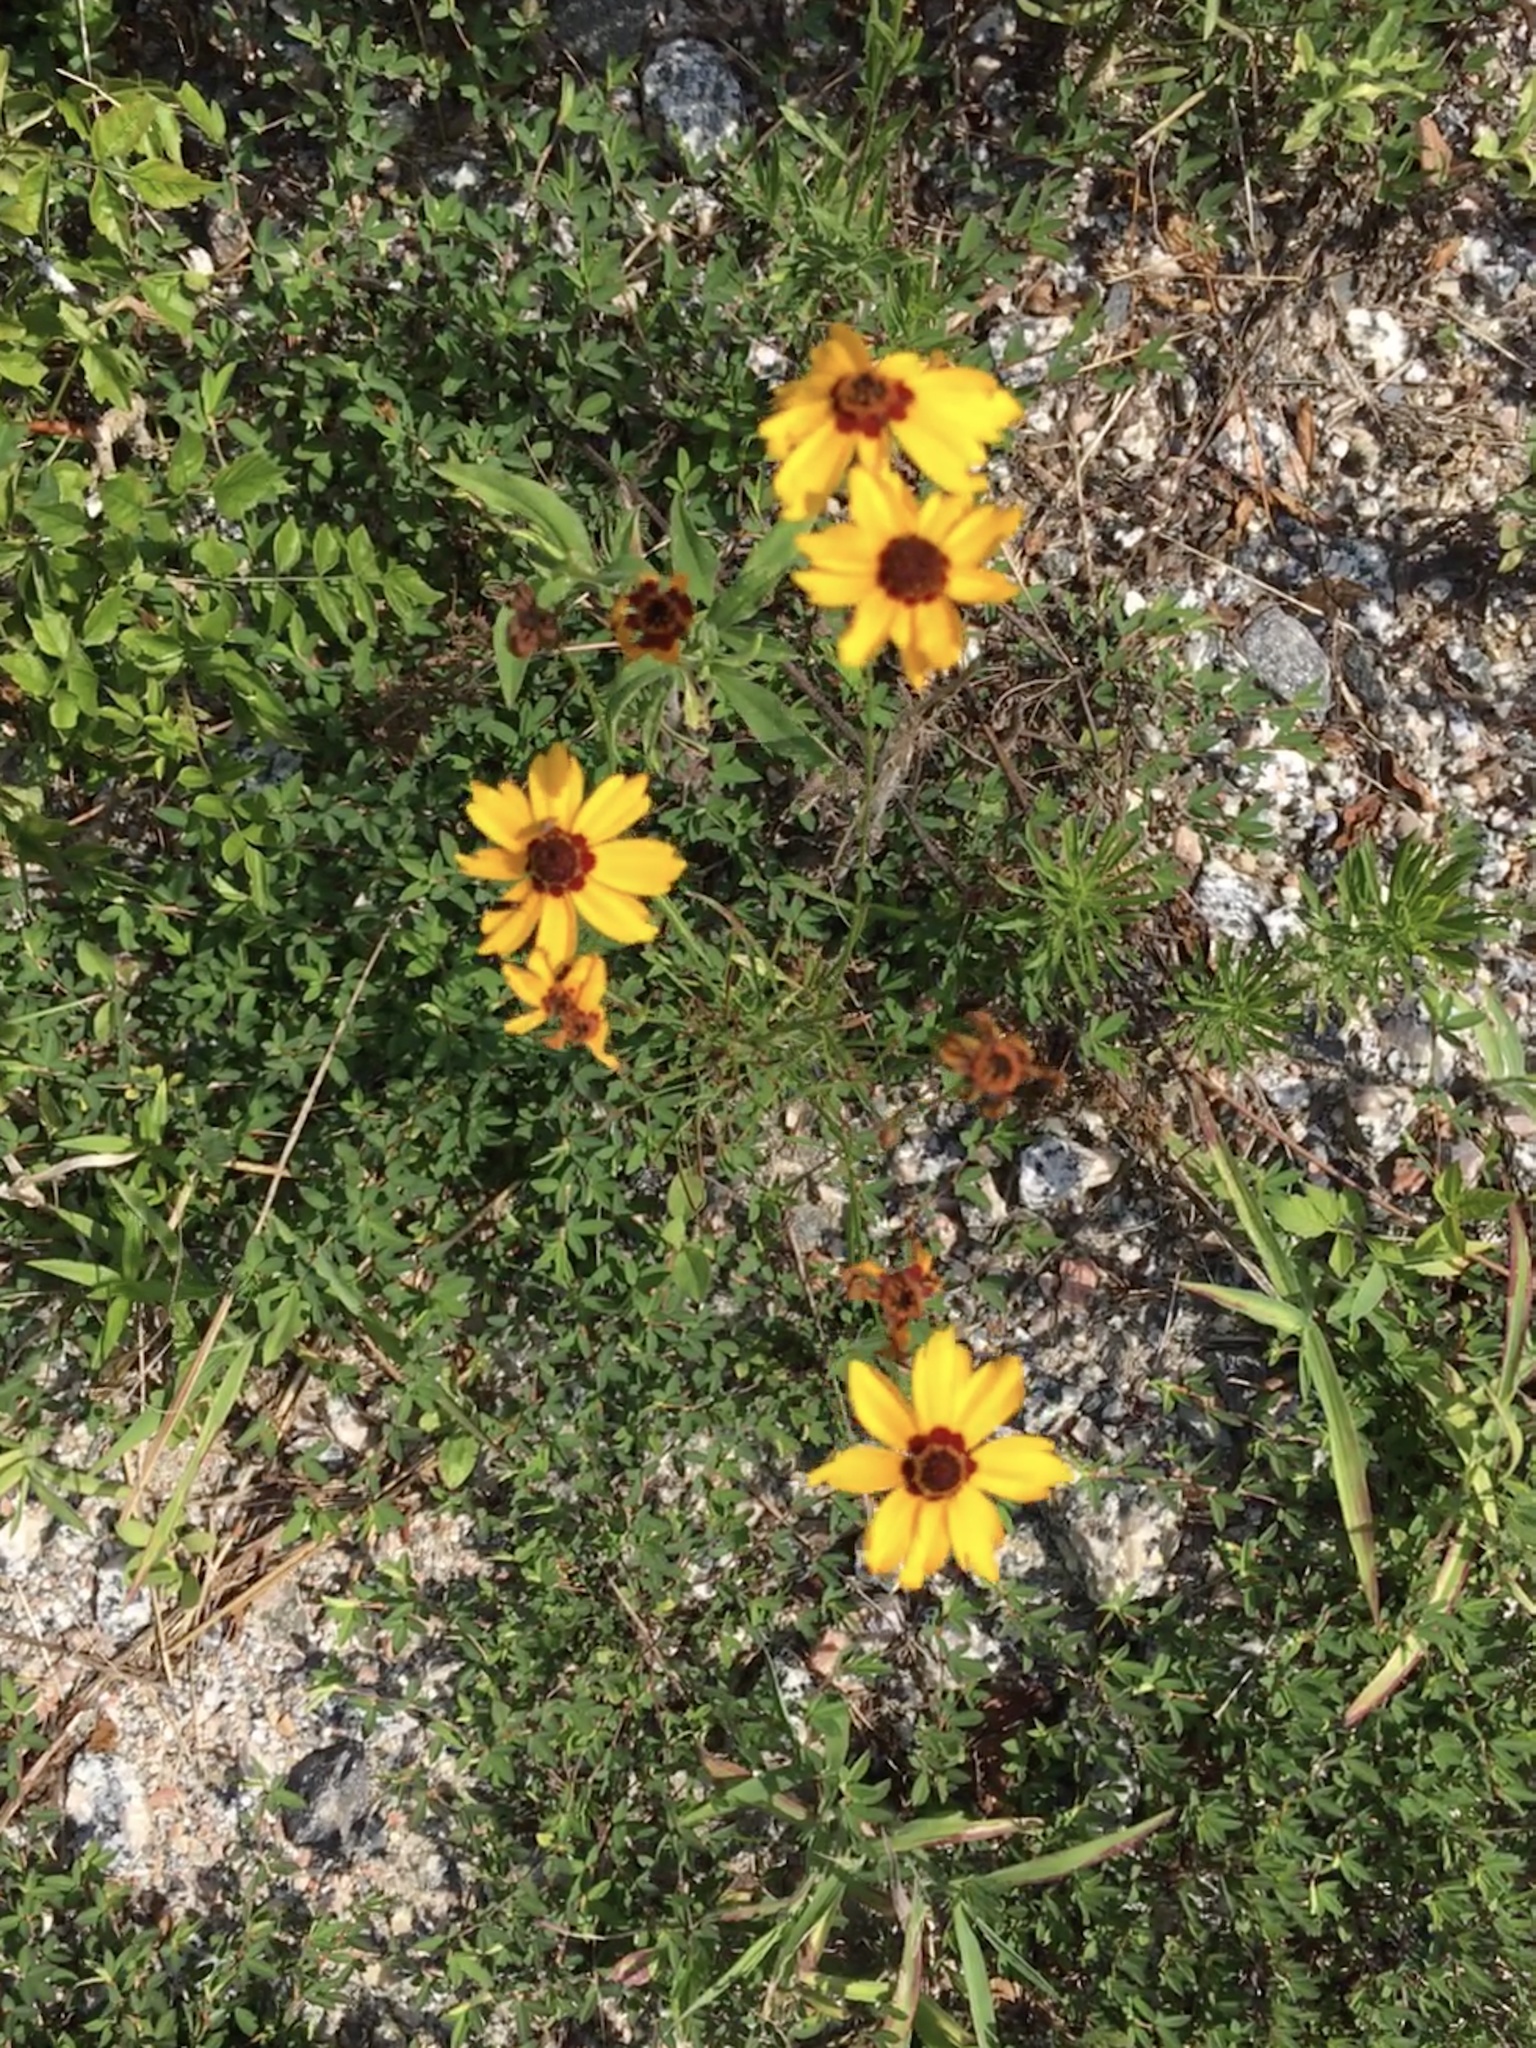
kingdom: Plantae
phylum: Tracheophyta
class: Magnoliopsida
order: Asterales
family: Asteraceae
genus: Coreopsis
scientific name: Coreopsis tinctoria
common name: Garden tickseed
